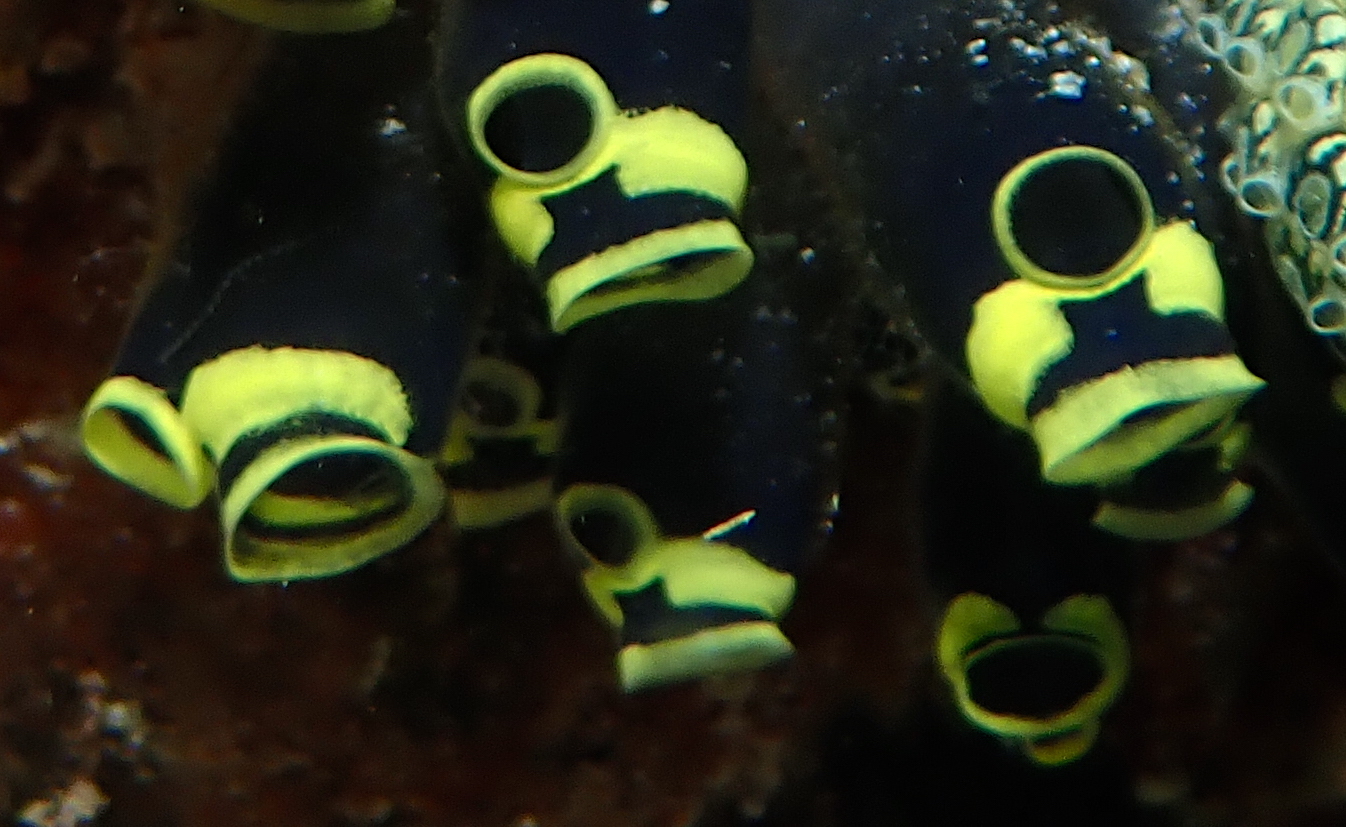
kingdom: Animalia
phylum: Chordata
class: Ascidiacea
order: Aplousobranchia
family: Clavelinidae
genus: Clavelina
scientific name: Clavelina robusta
